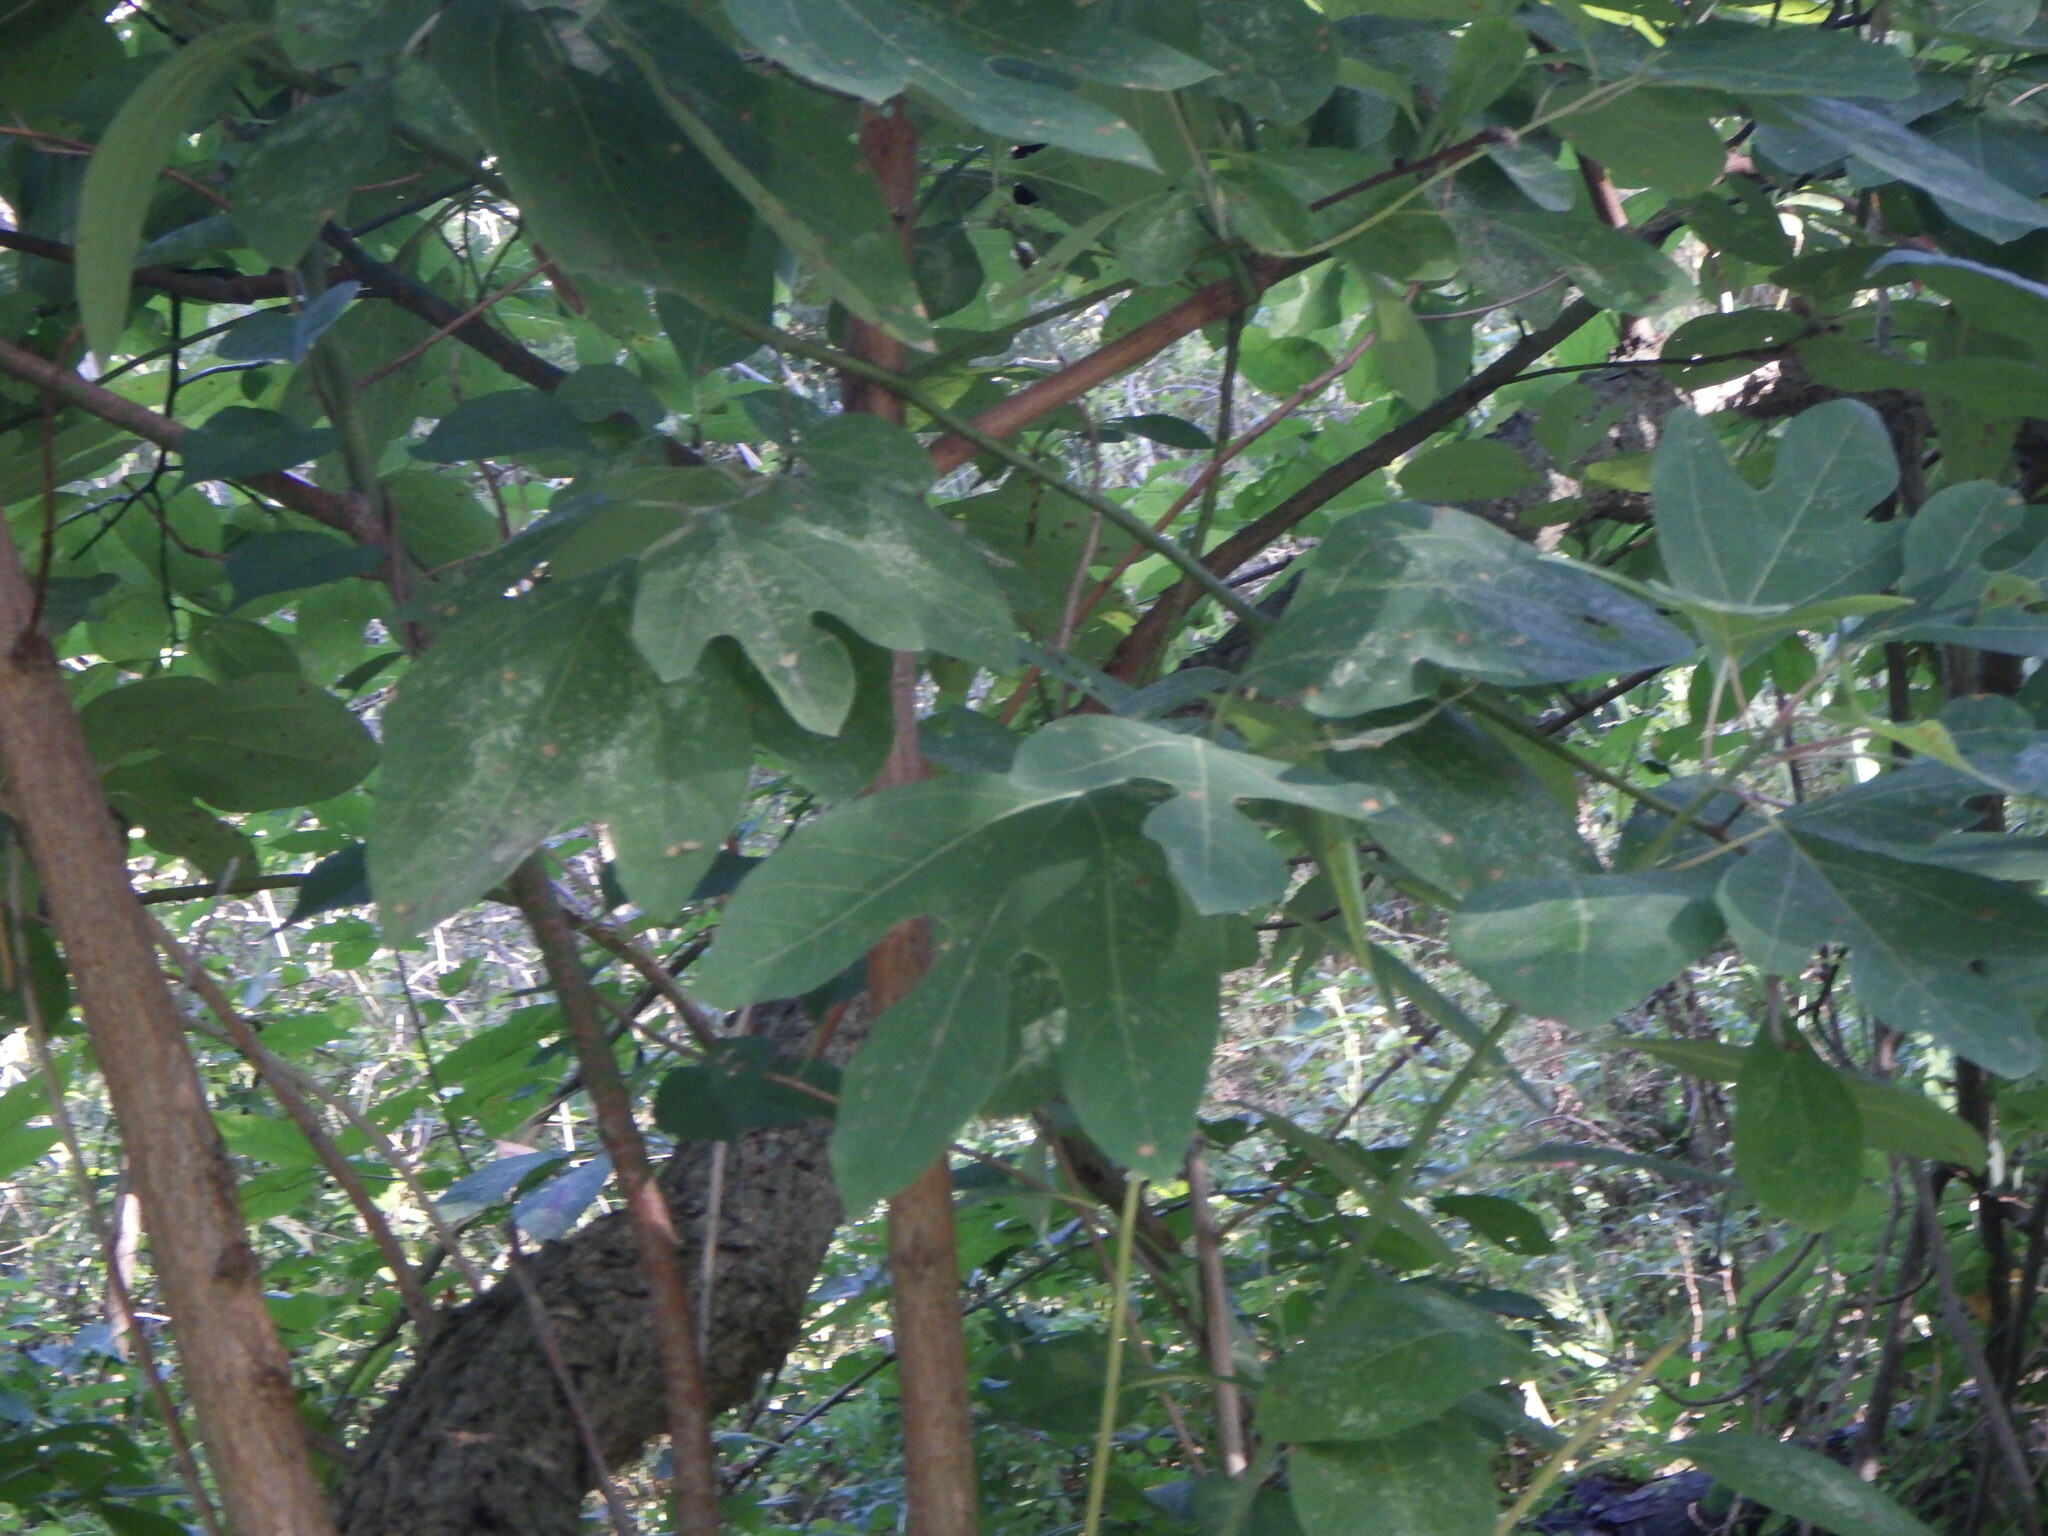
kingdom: Plantae
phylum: Tracheophyta
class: Magnoliopsida
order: Laurales
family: Lauraceae
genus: Sassafras
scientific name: Sassafras albidum
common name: Sassafras
